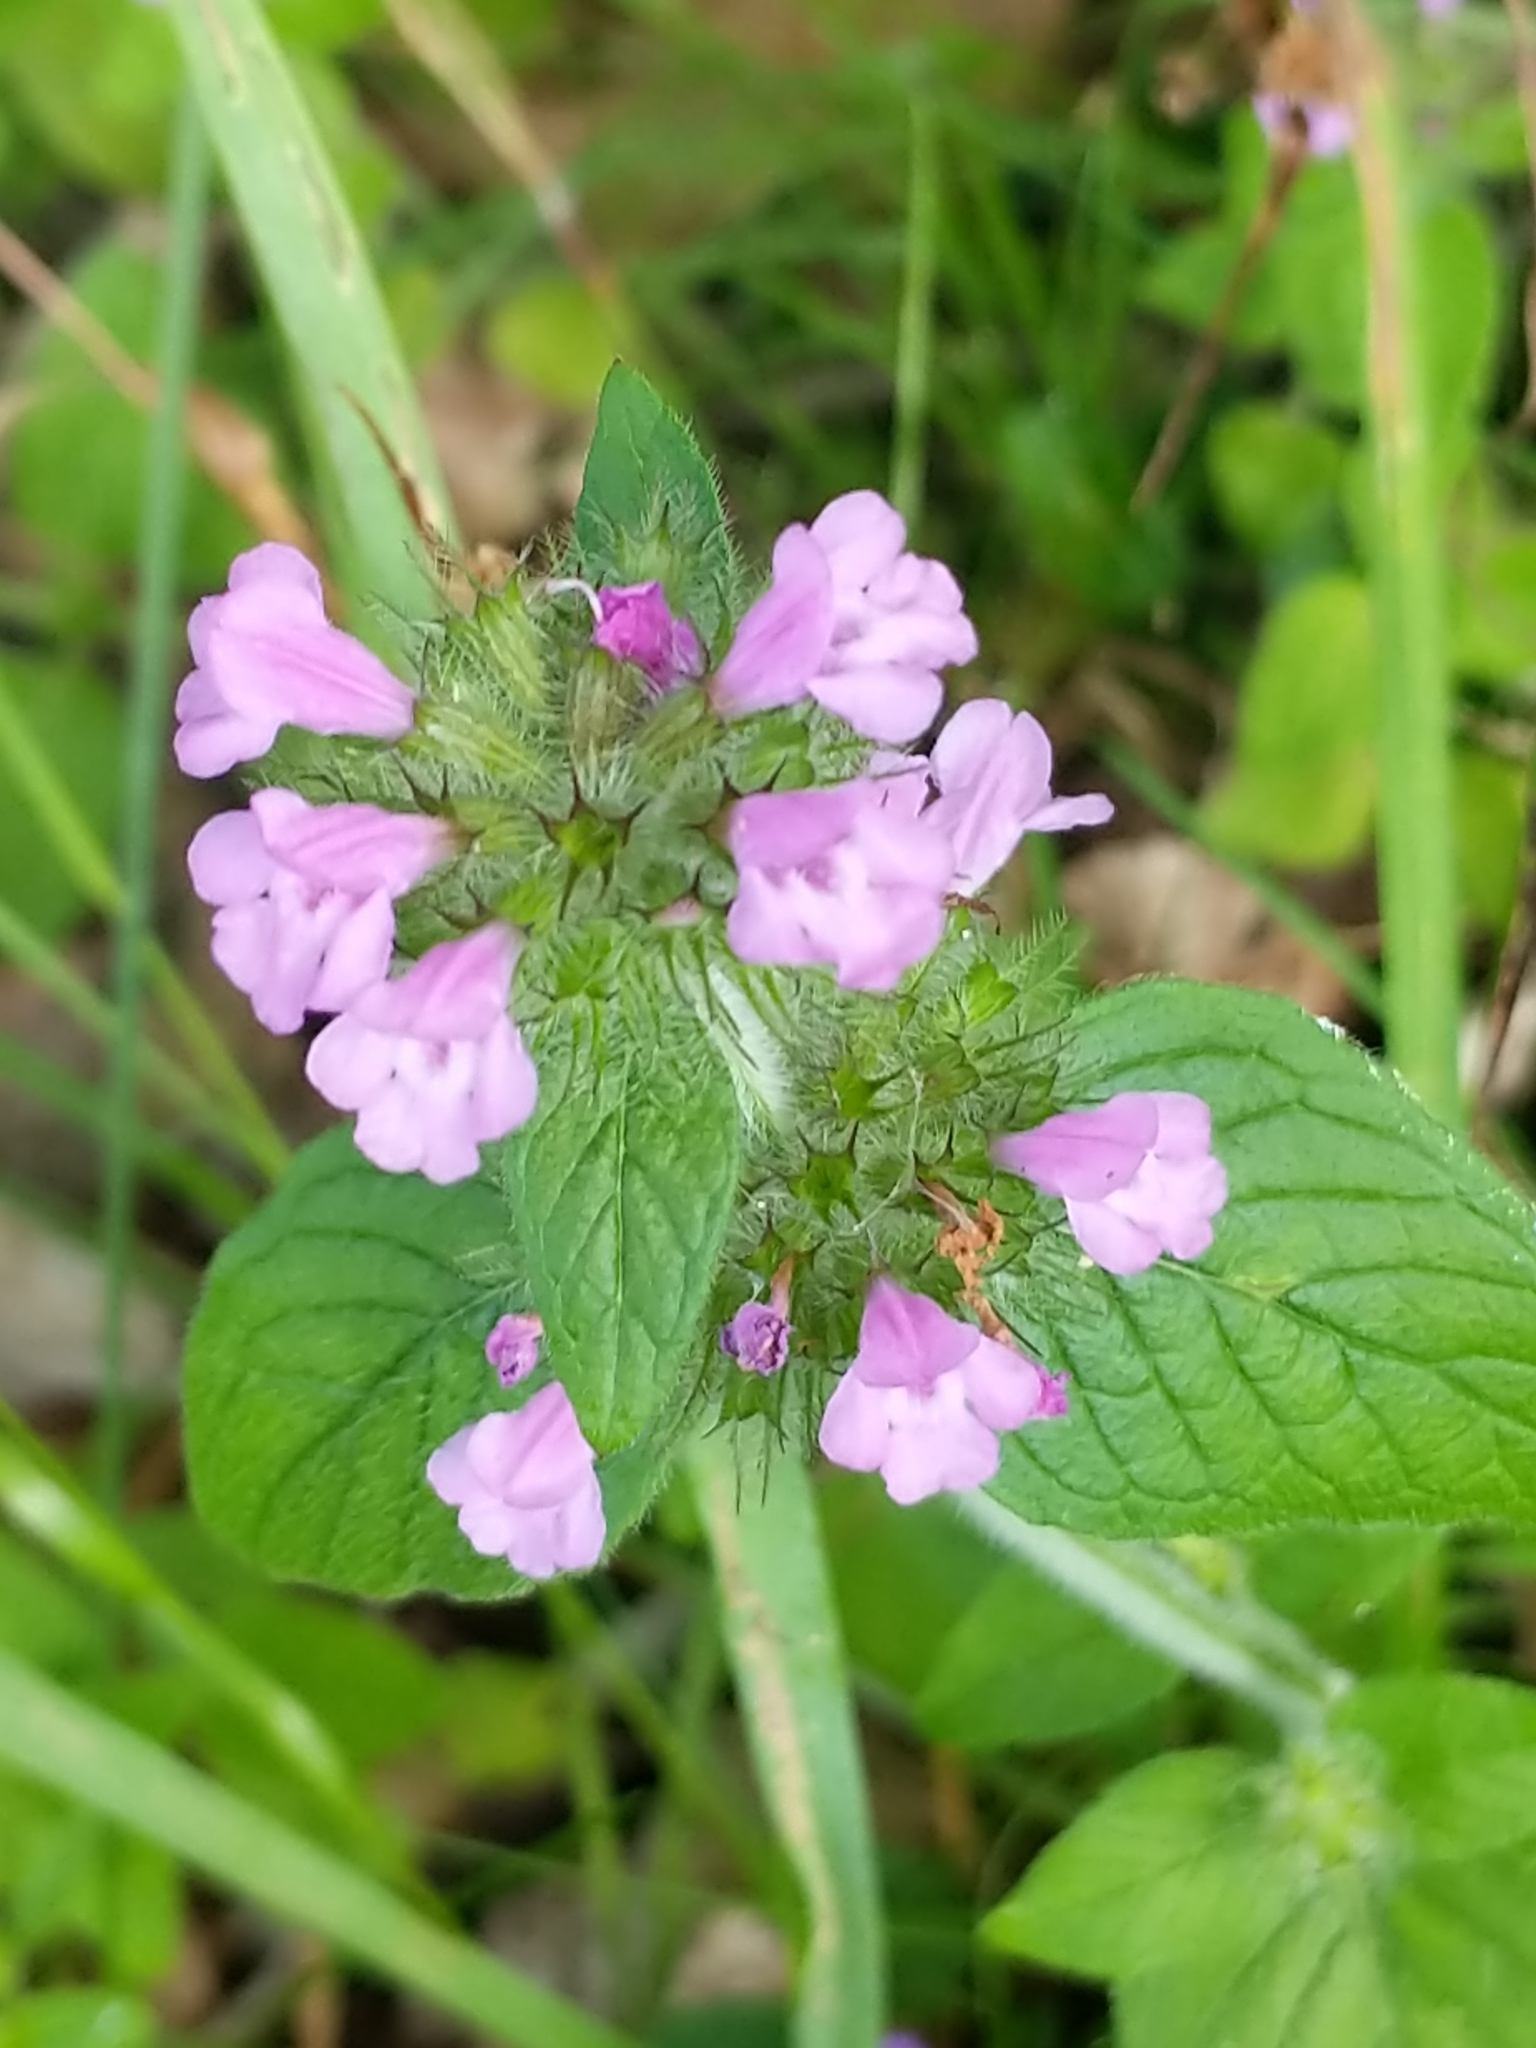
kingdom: Plantae
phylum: Tracheophyta
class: Magnoliopsida
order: Lamiales
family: Lamiaceae
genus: Clinopodium
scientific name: Clinopodium vulgare
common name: Wild basil
